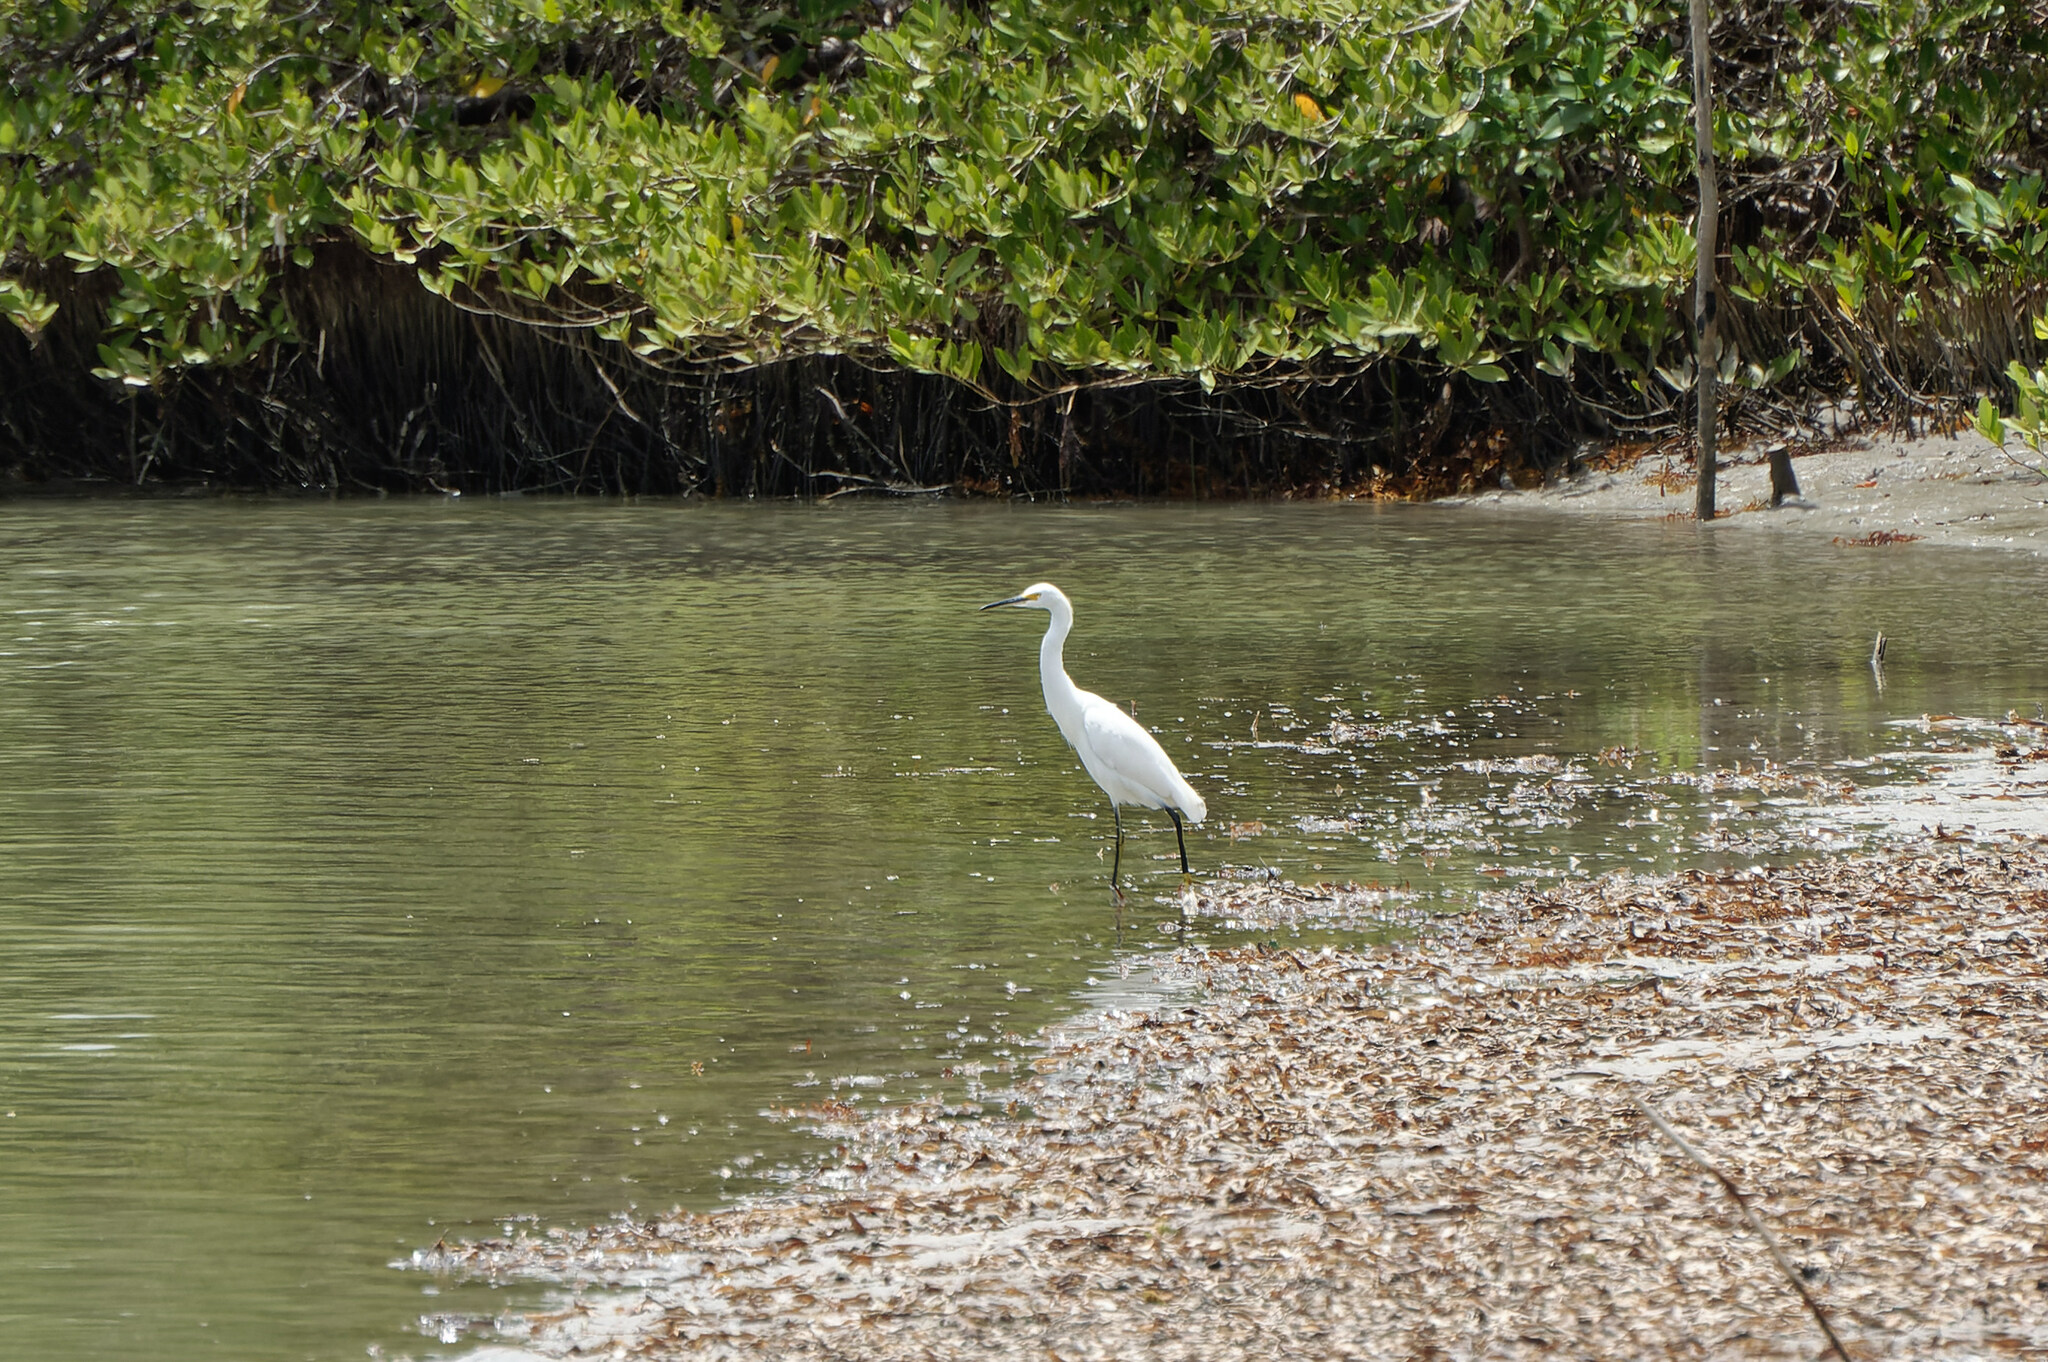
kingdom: Animalia
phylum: Chordata
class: Aves
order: Pelecaniformes
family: Ardeidae
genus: Egretta
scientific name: Egretta thula
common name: Snowy egret
